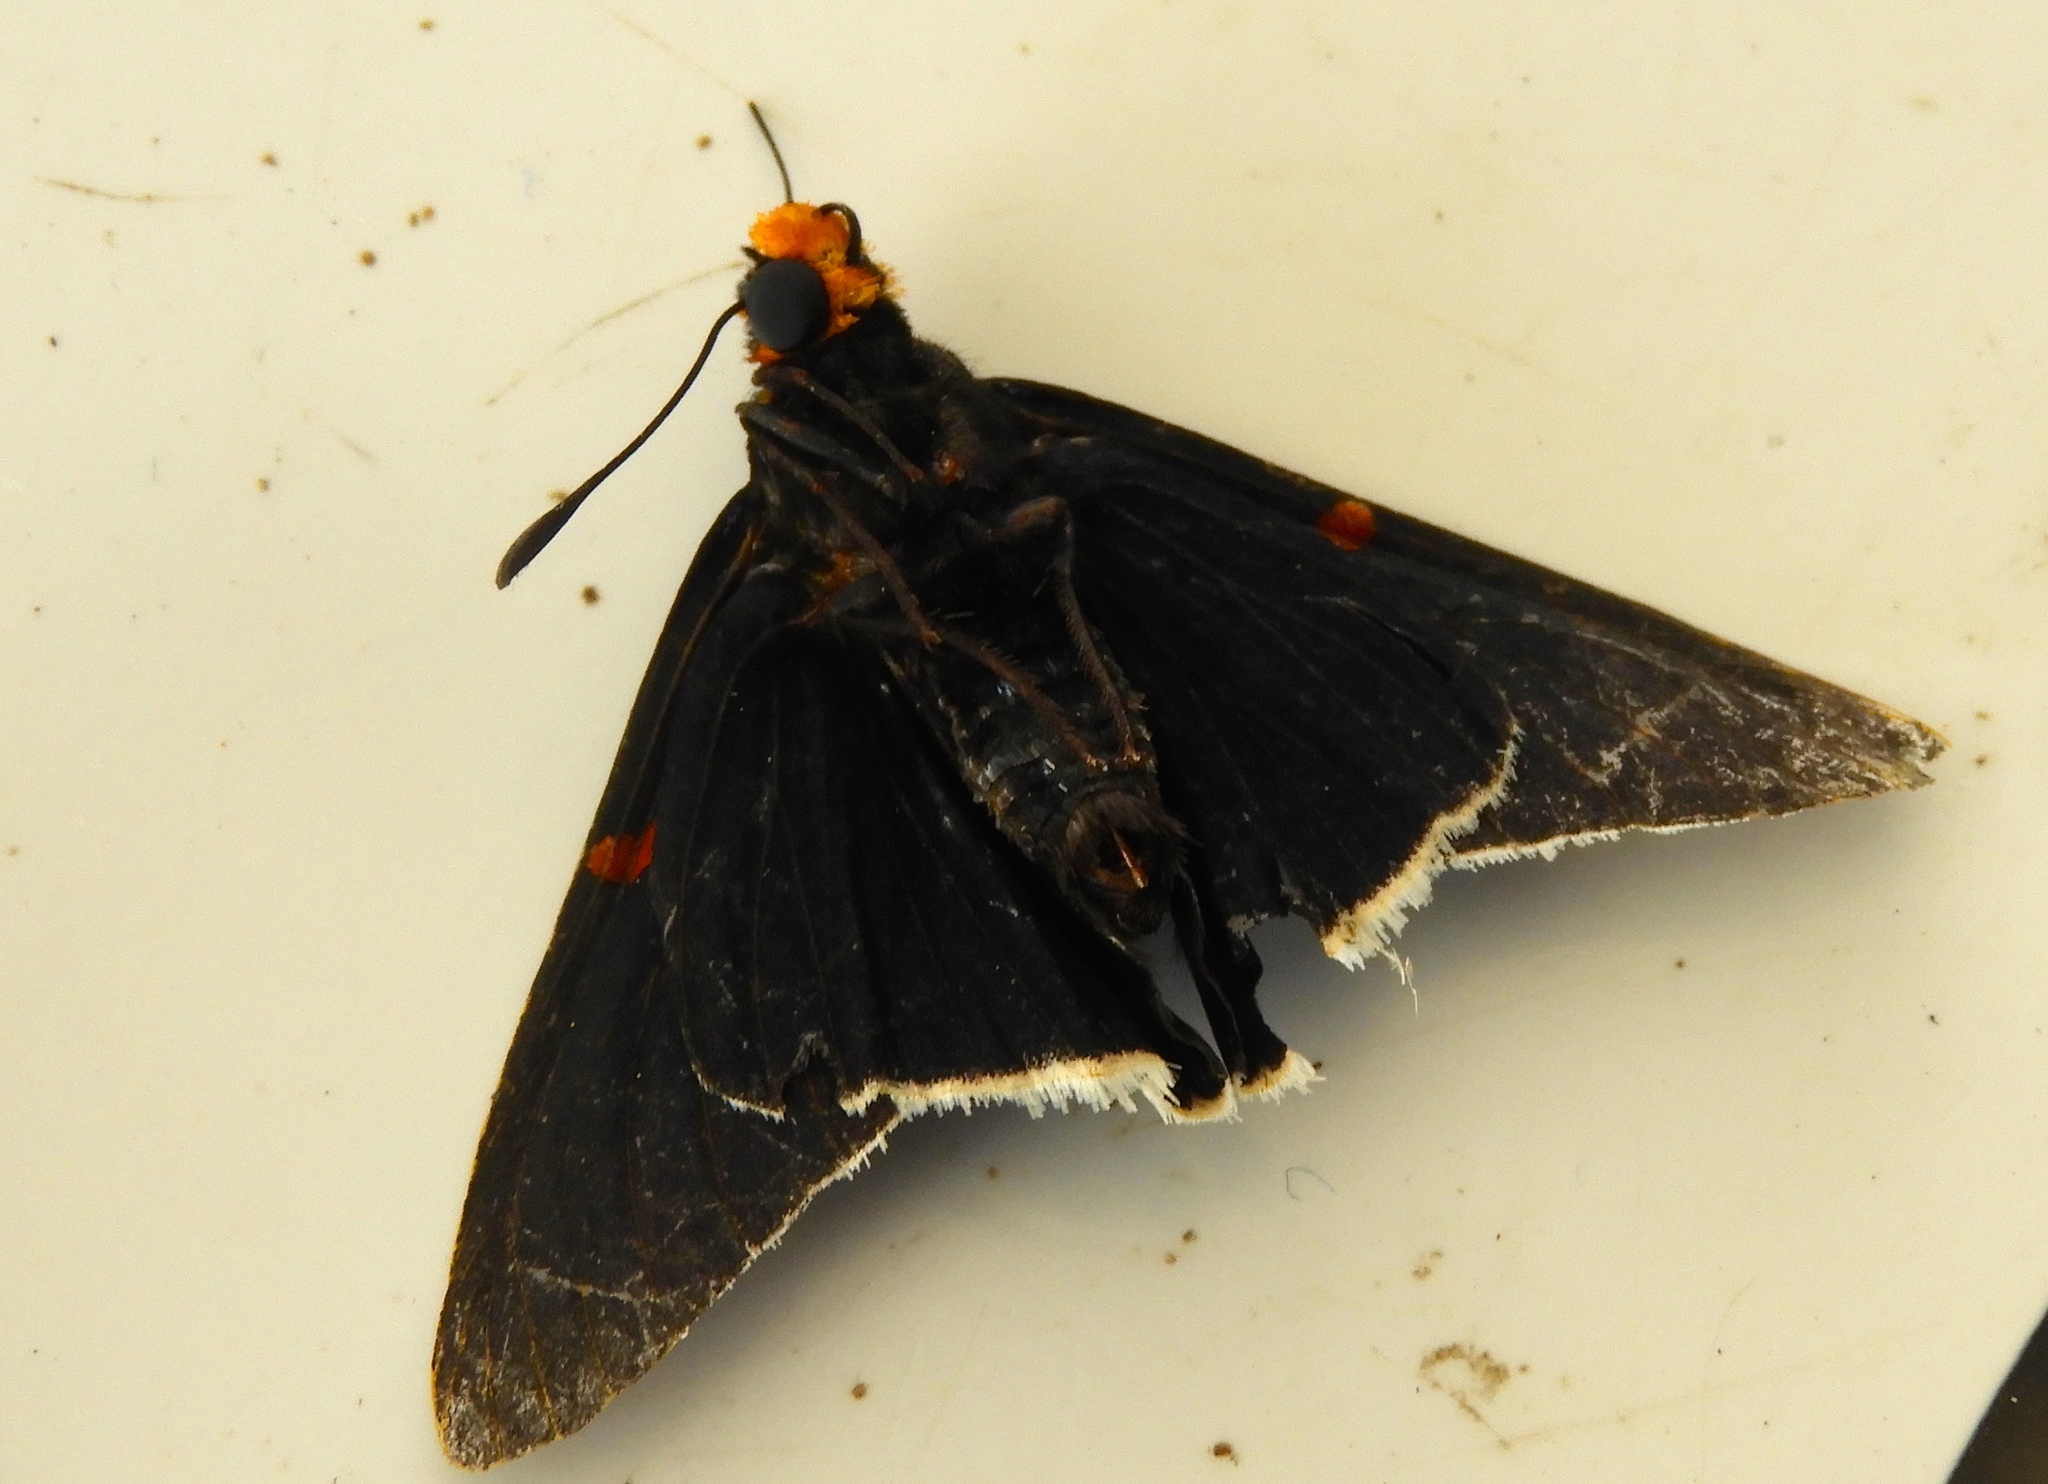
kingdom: Animalia
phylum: Arthropoda
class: Insecta
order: Lepidoptera
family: Hesperiidae
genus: Phocides
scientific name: Phocides lilea
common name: Guava skipper
